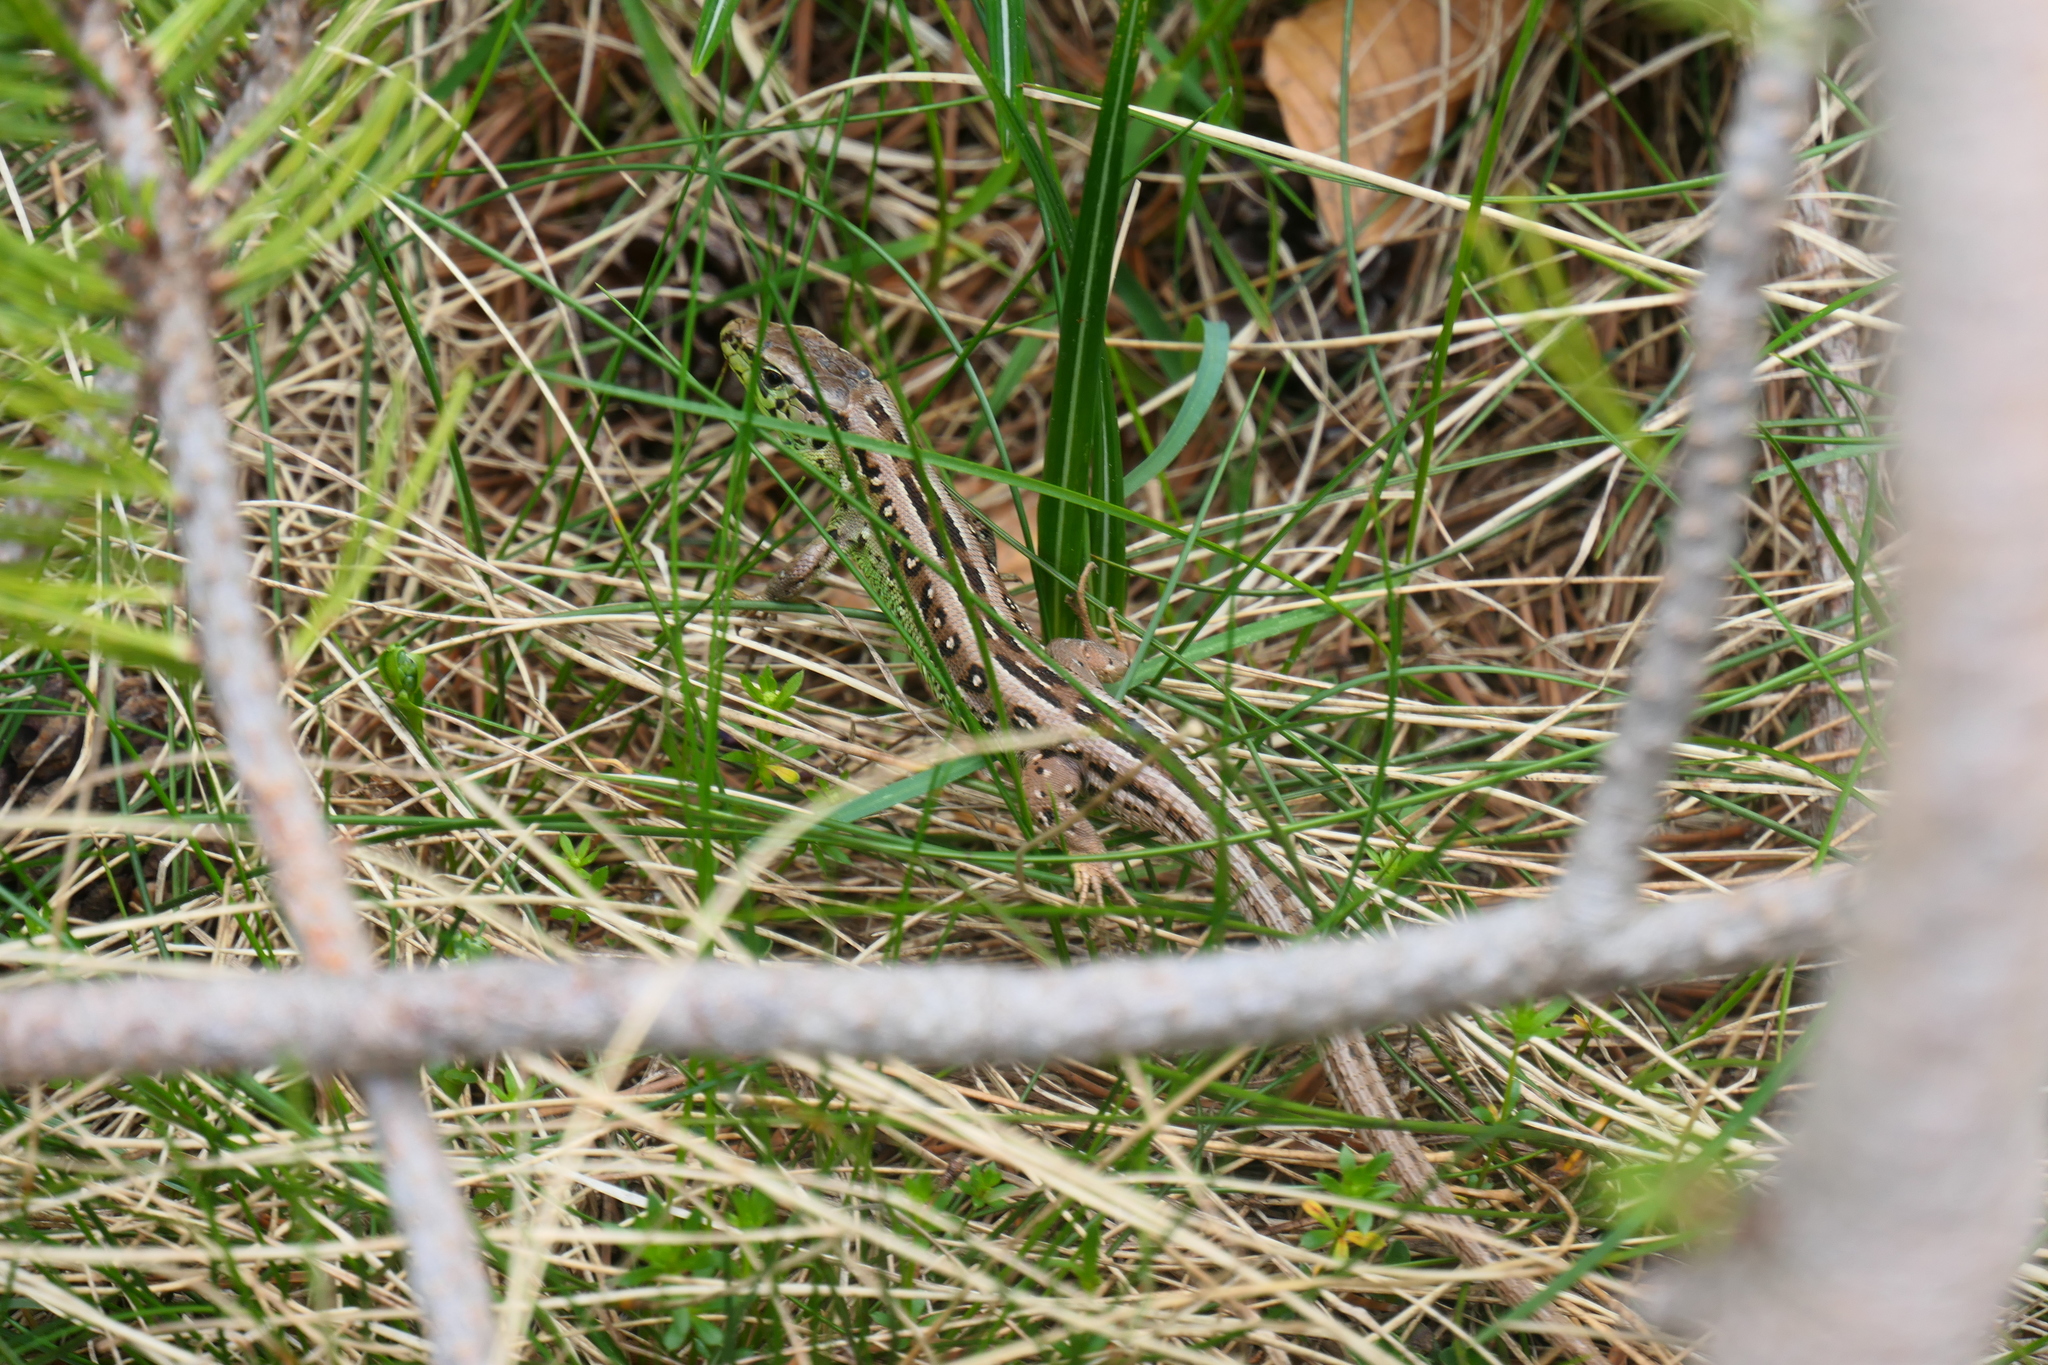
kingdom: Animalia
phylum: Chordata
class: Squamata
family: Lacertidae
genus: Lacerta
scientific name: Lacerta agilis
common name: Sand lizard
